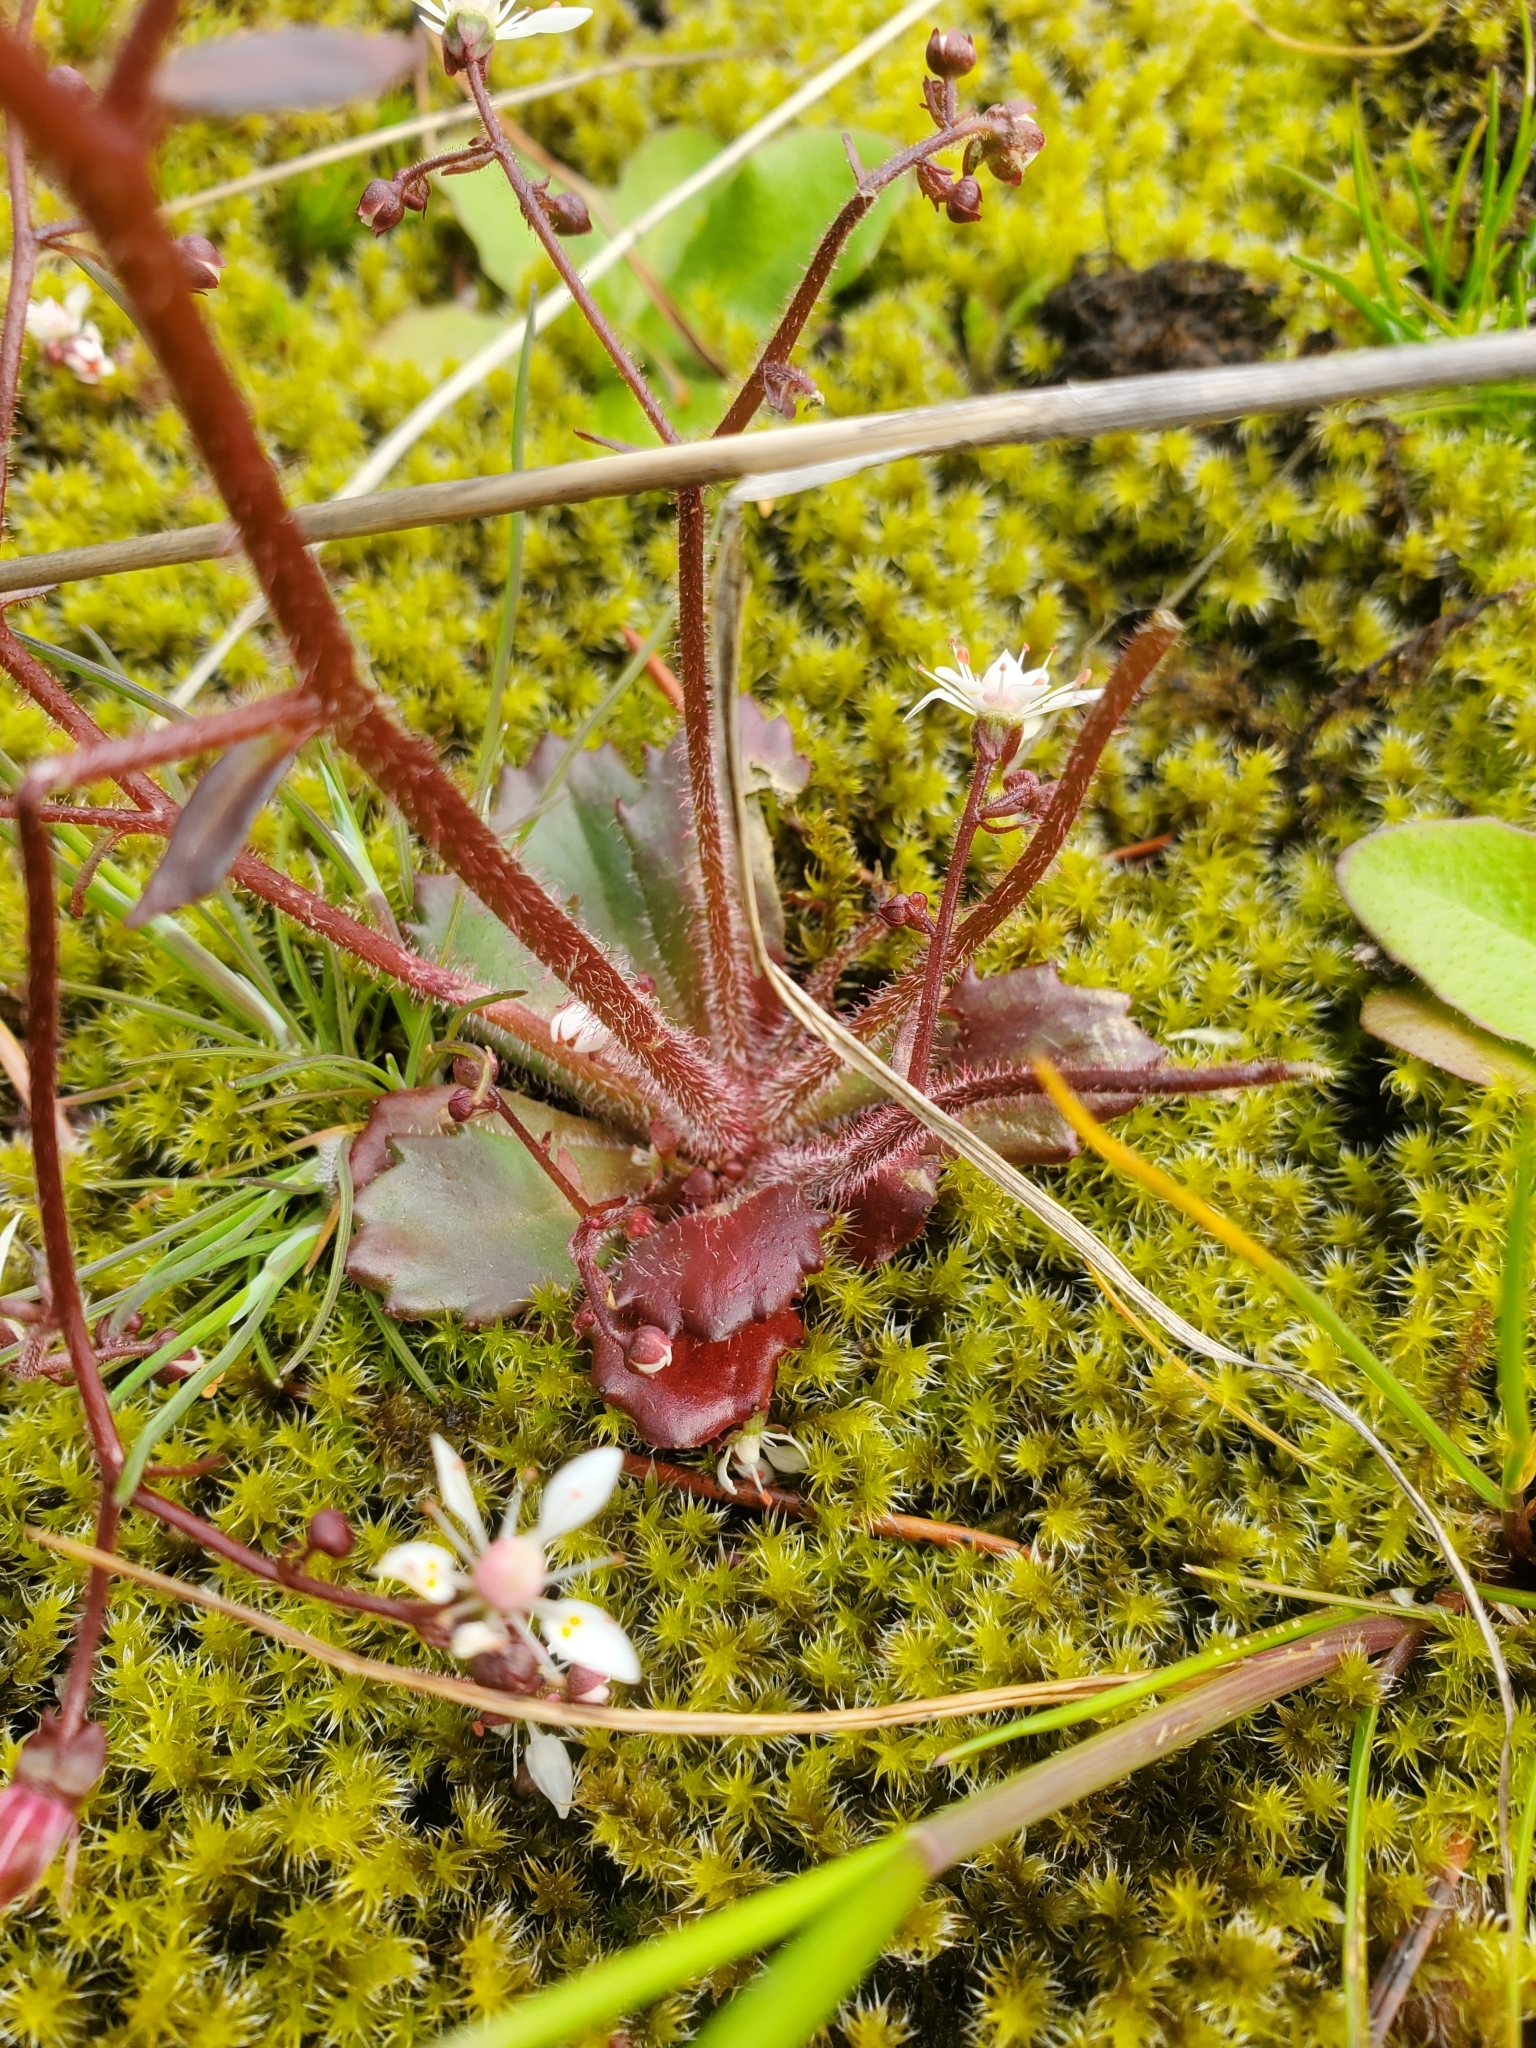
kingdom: Plantae
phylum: Tracheophyta
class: Magnoliopsida
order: Saxifragales
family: Saxifragaceae
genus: Micranthes
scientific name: Micranthes ferruginea
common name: Rusty saxifrage
